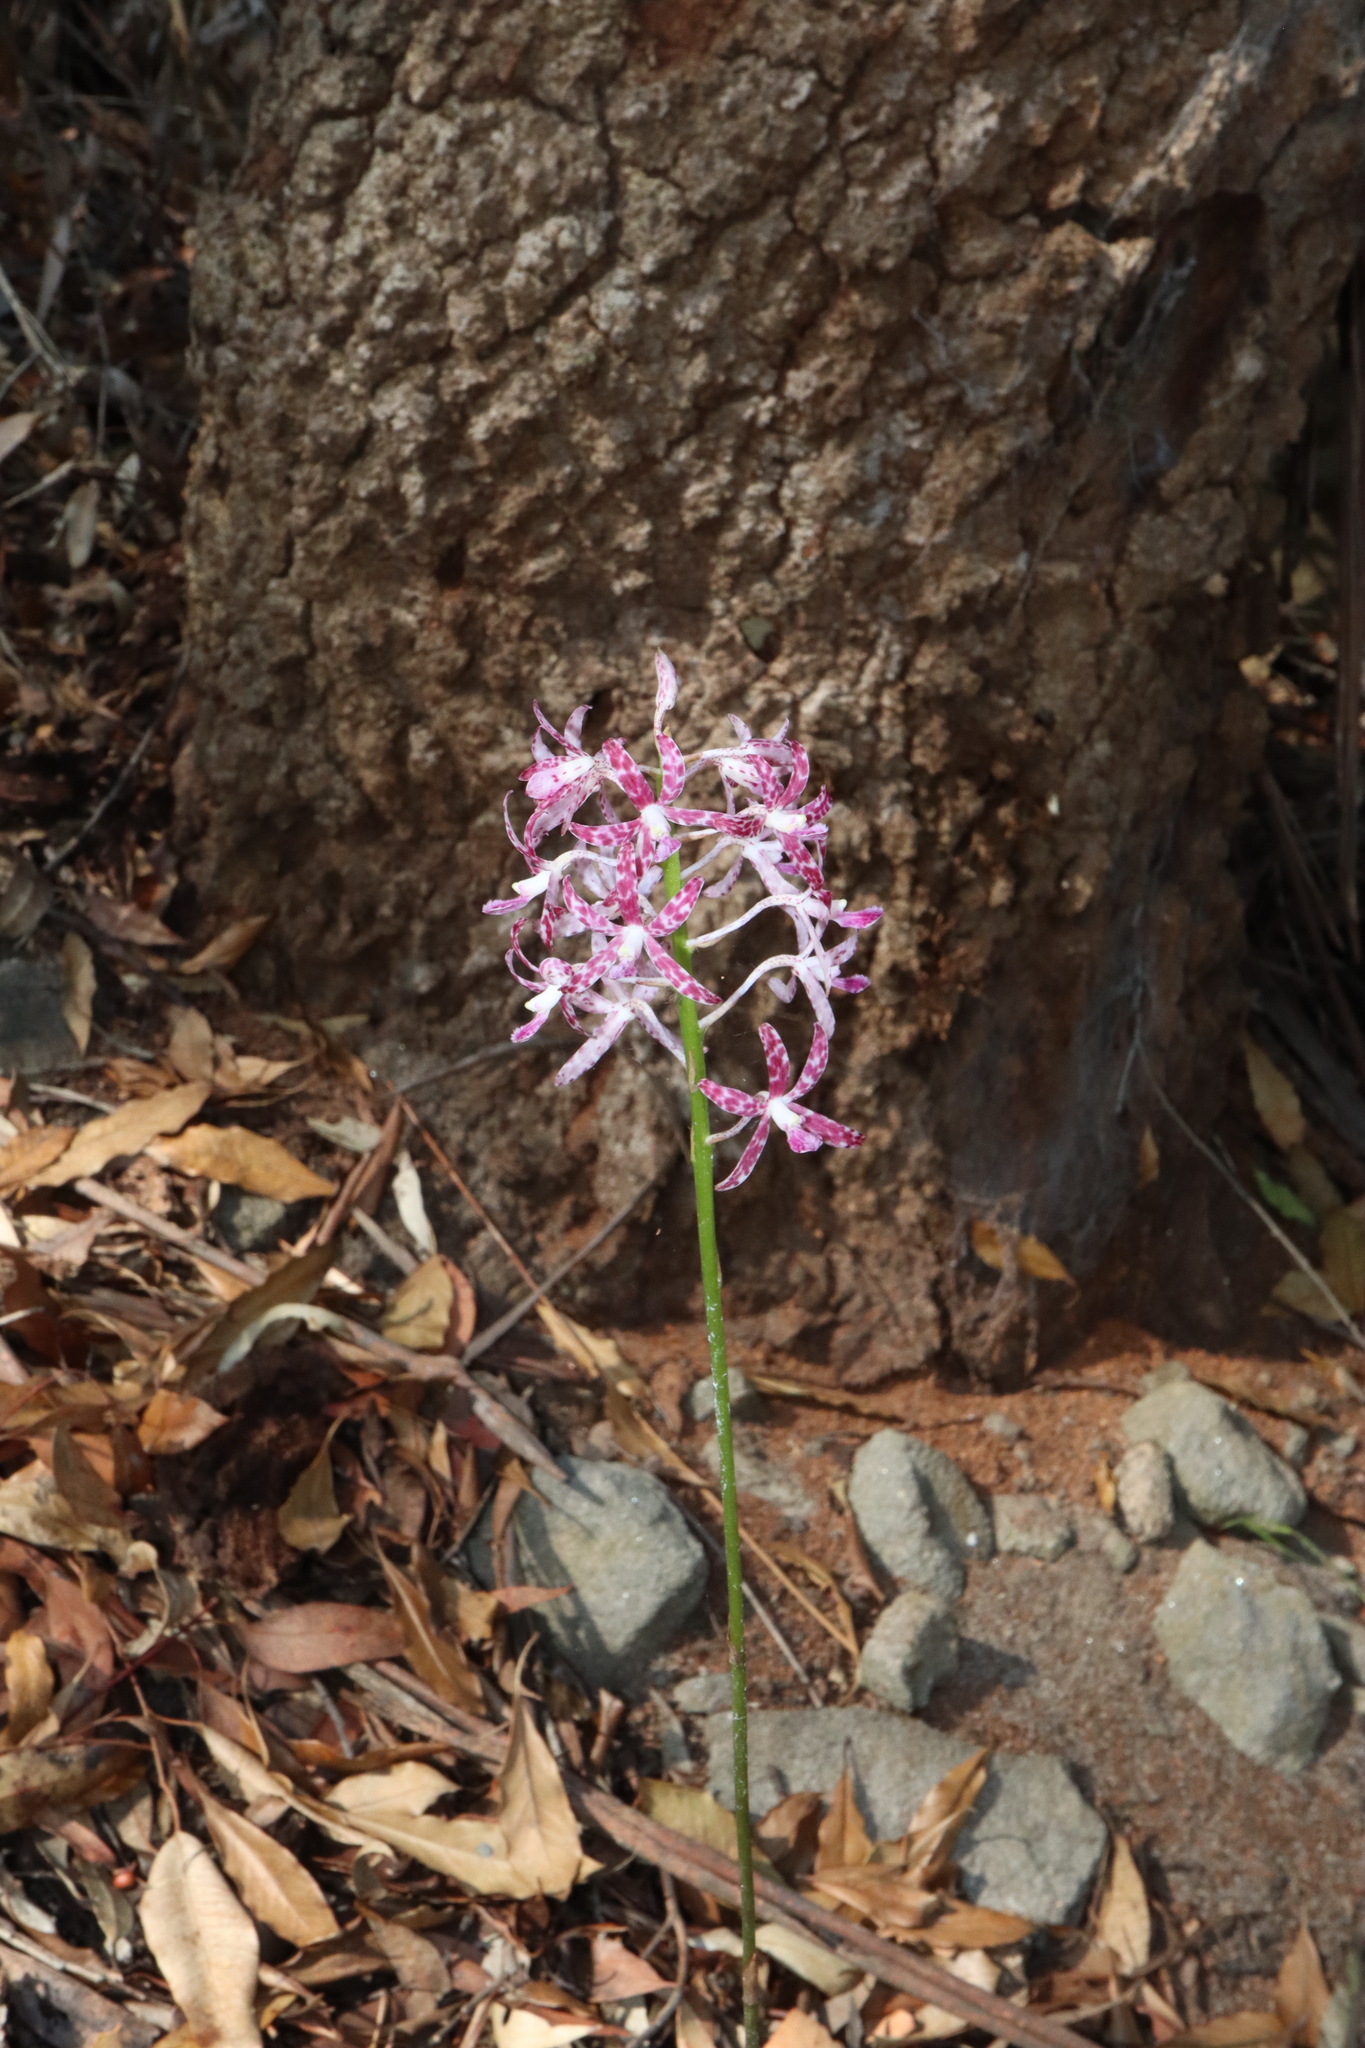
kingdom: Plantae
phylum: Tracheophyta
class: Liliopsida
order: Asparagales
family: Orchidaceae
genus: Dipodium
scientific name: Dipodium variegatum
